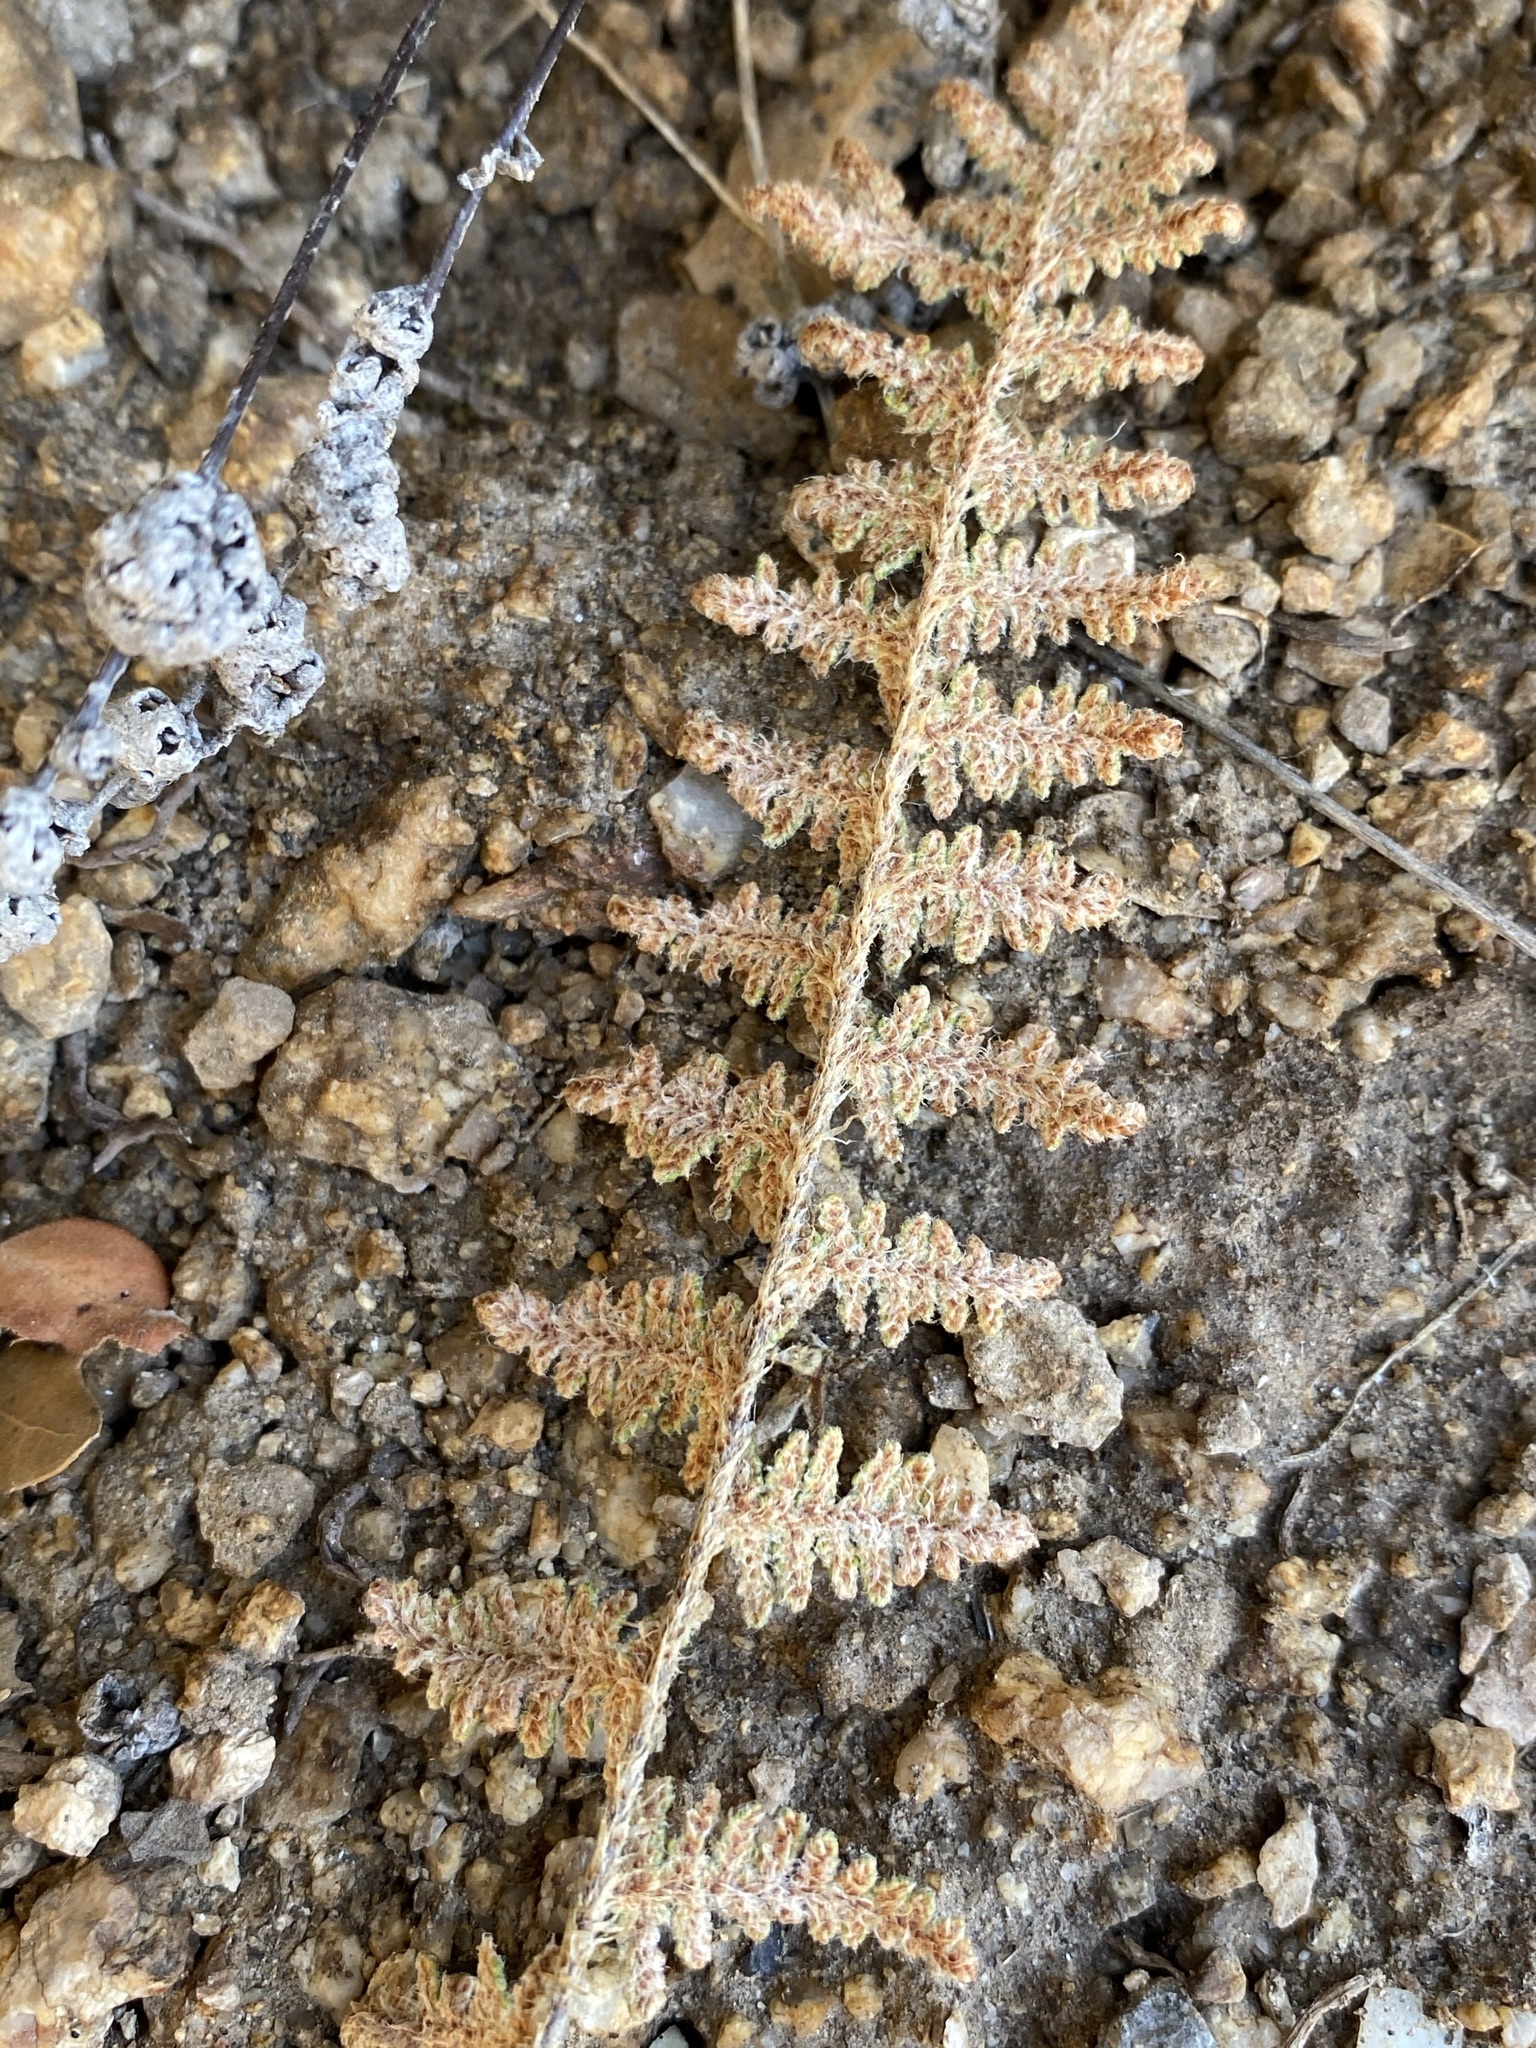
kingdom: Plantae
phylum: Tracheophyta
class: Polypodiopsida
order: Polypodiales
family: Pteridaceae
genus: Myriopteris
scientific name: Myriopteris lindheimeri
